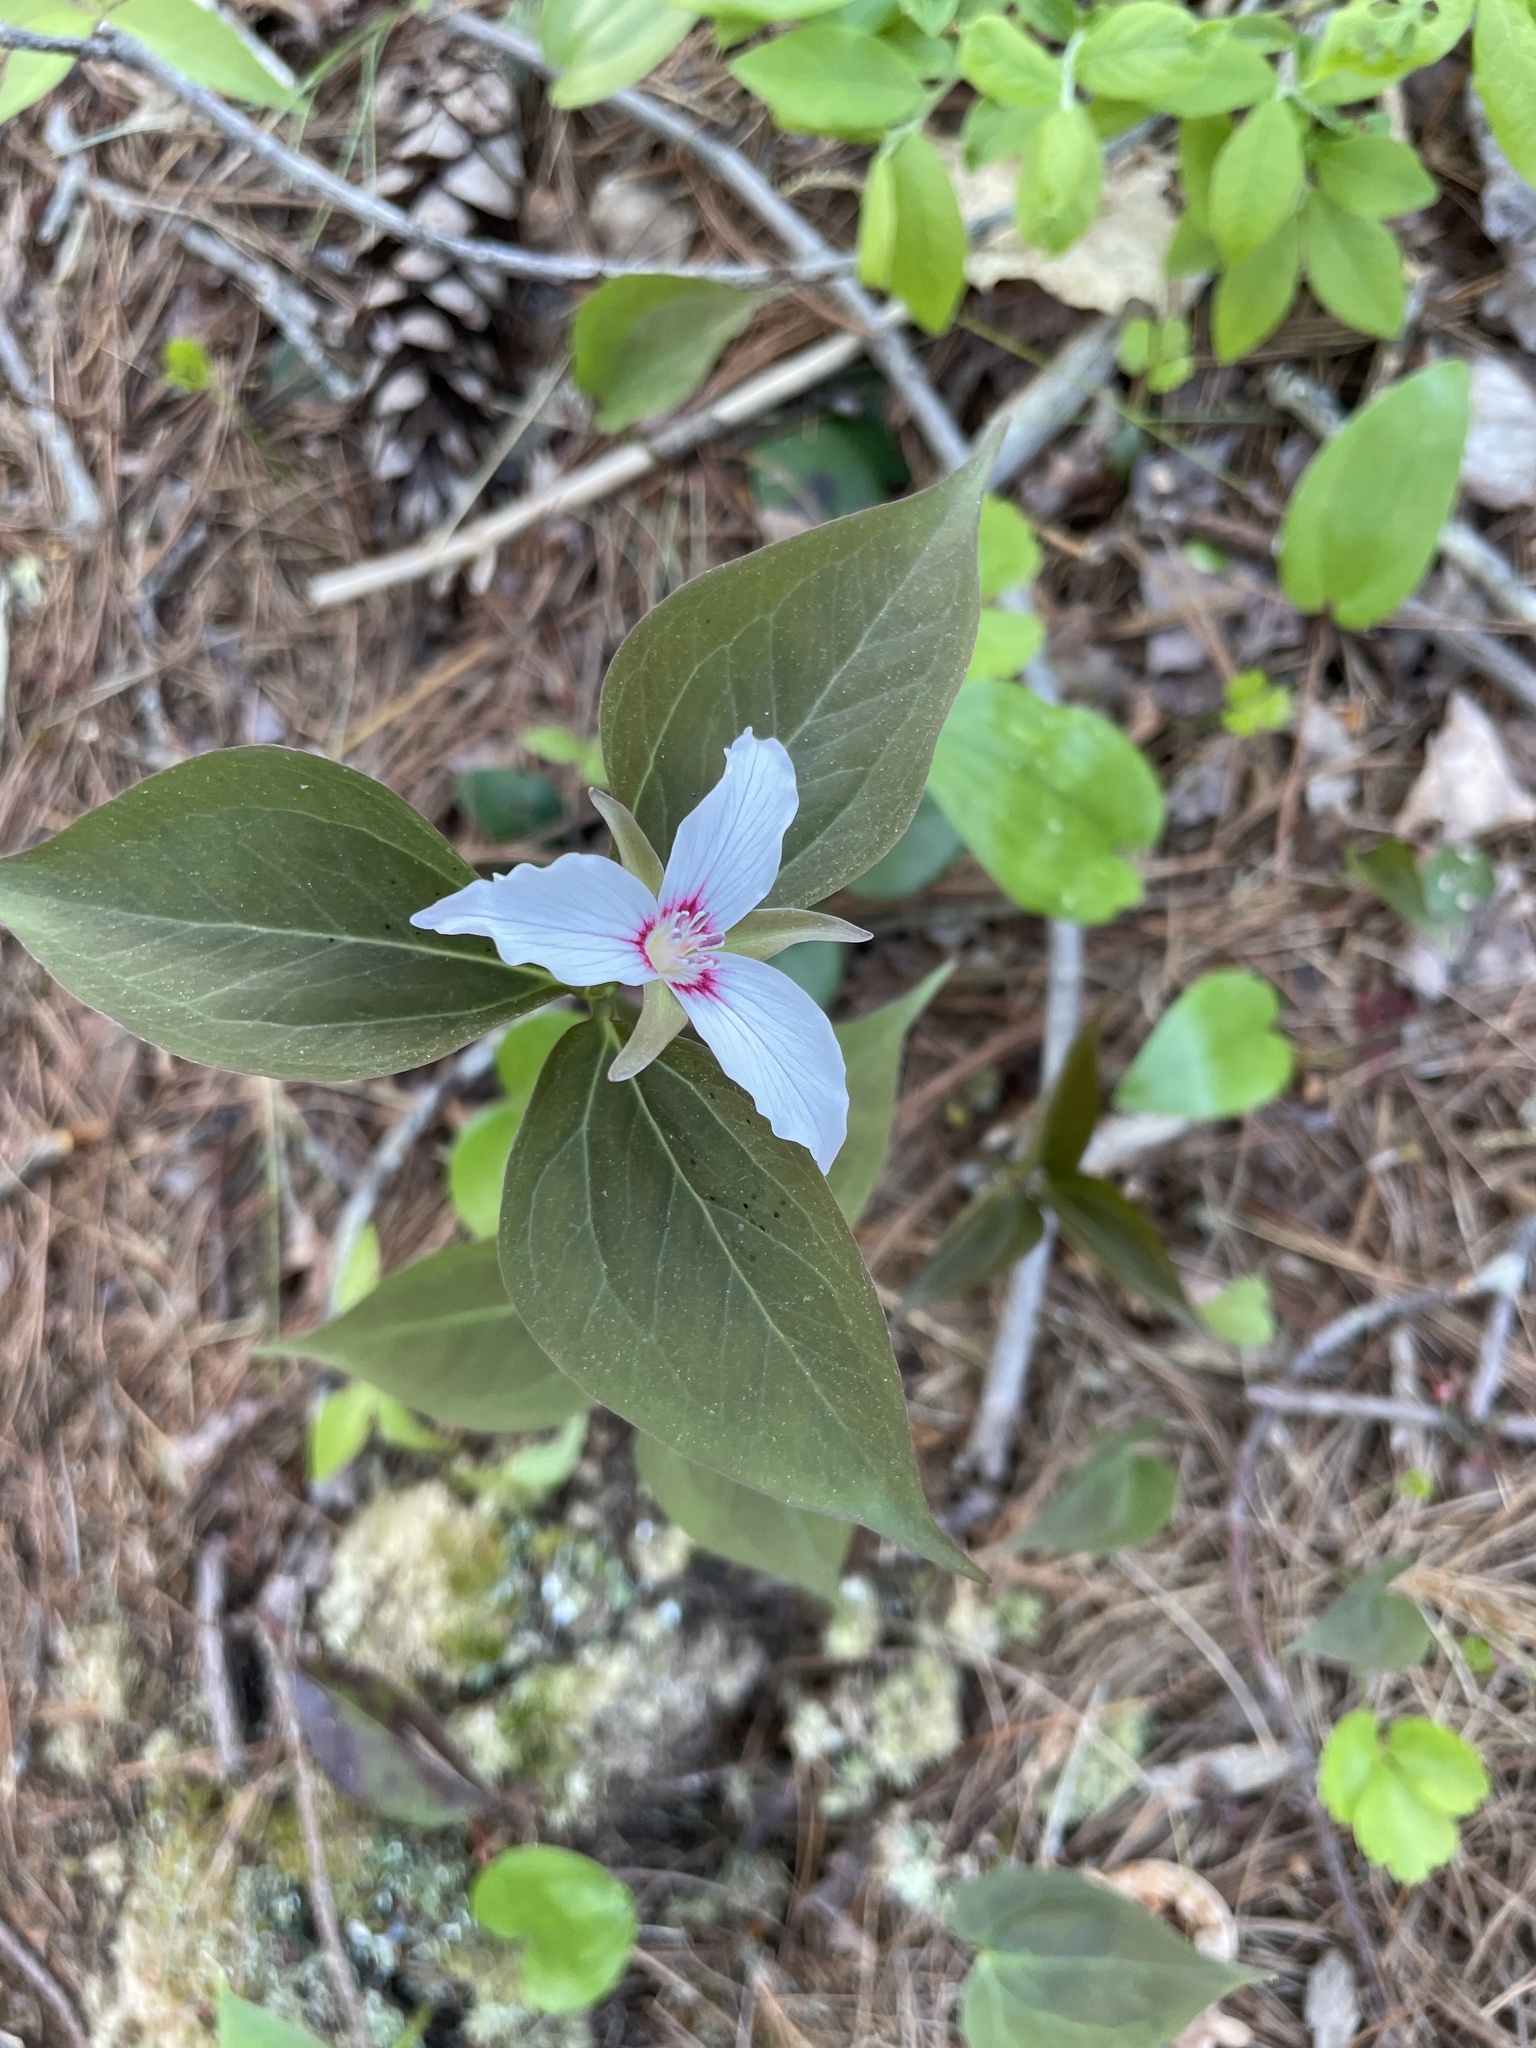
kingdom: Plantae
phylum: Tracheophyta
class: Liliopsida
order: Liliales
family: Melanthiaceae
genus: Trillium
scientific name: Trillium undulatum
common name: Paint trillium
